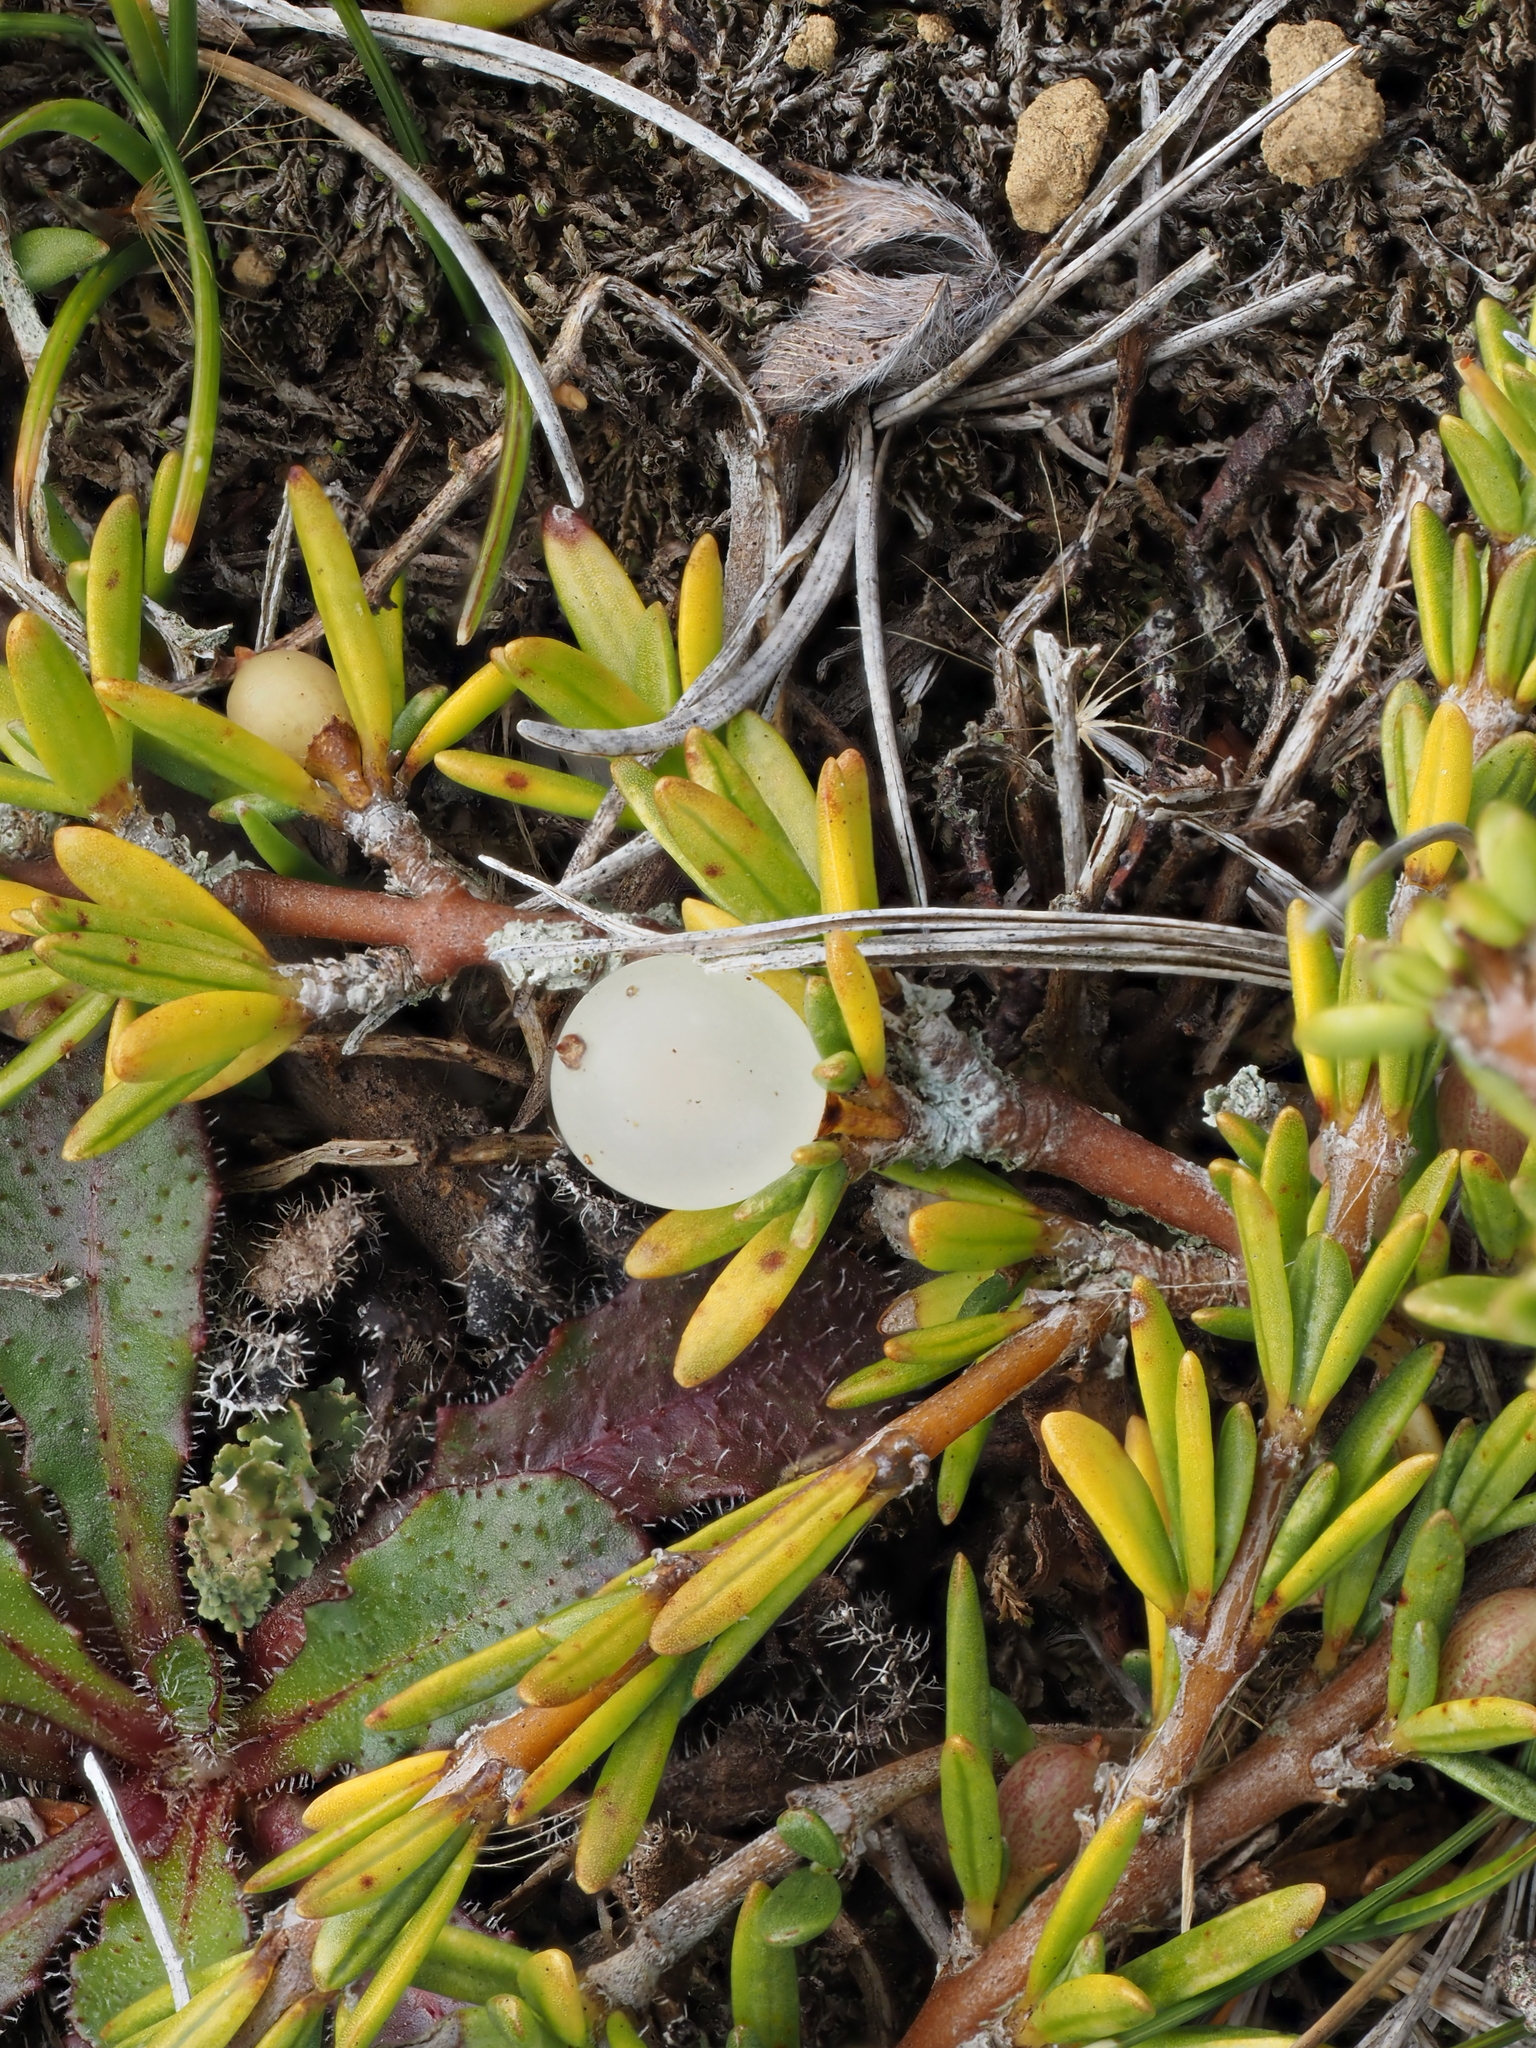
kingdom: Plantae
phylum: Tracheophyta
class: Magnoliopsida
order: Gentianales
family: Rubiaceae
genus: Coprosma
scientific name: Coprosma acerosa
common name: Sand coprosma
